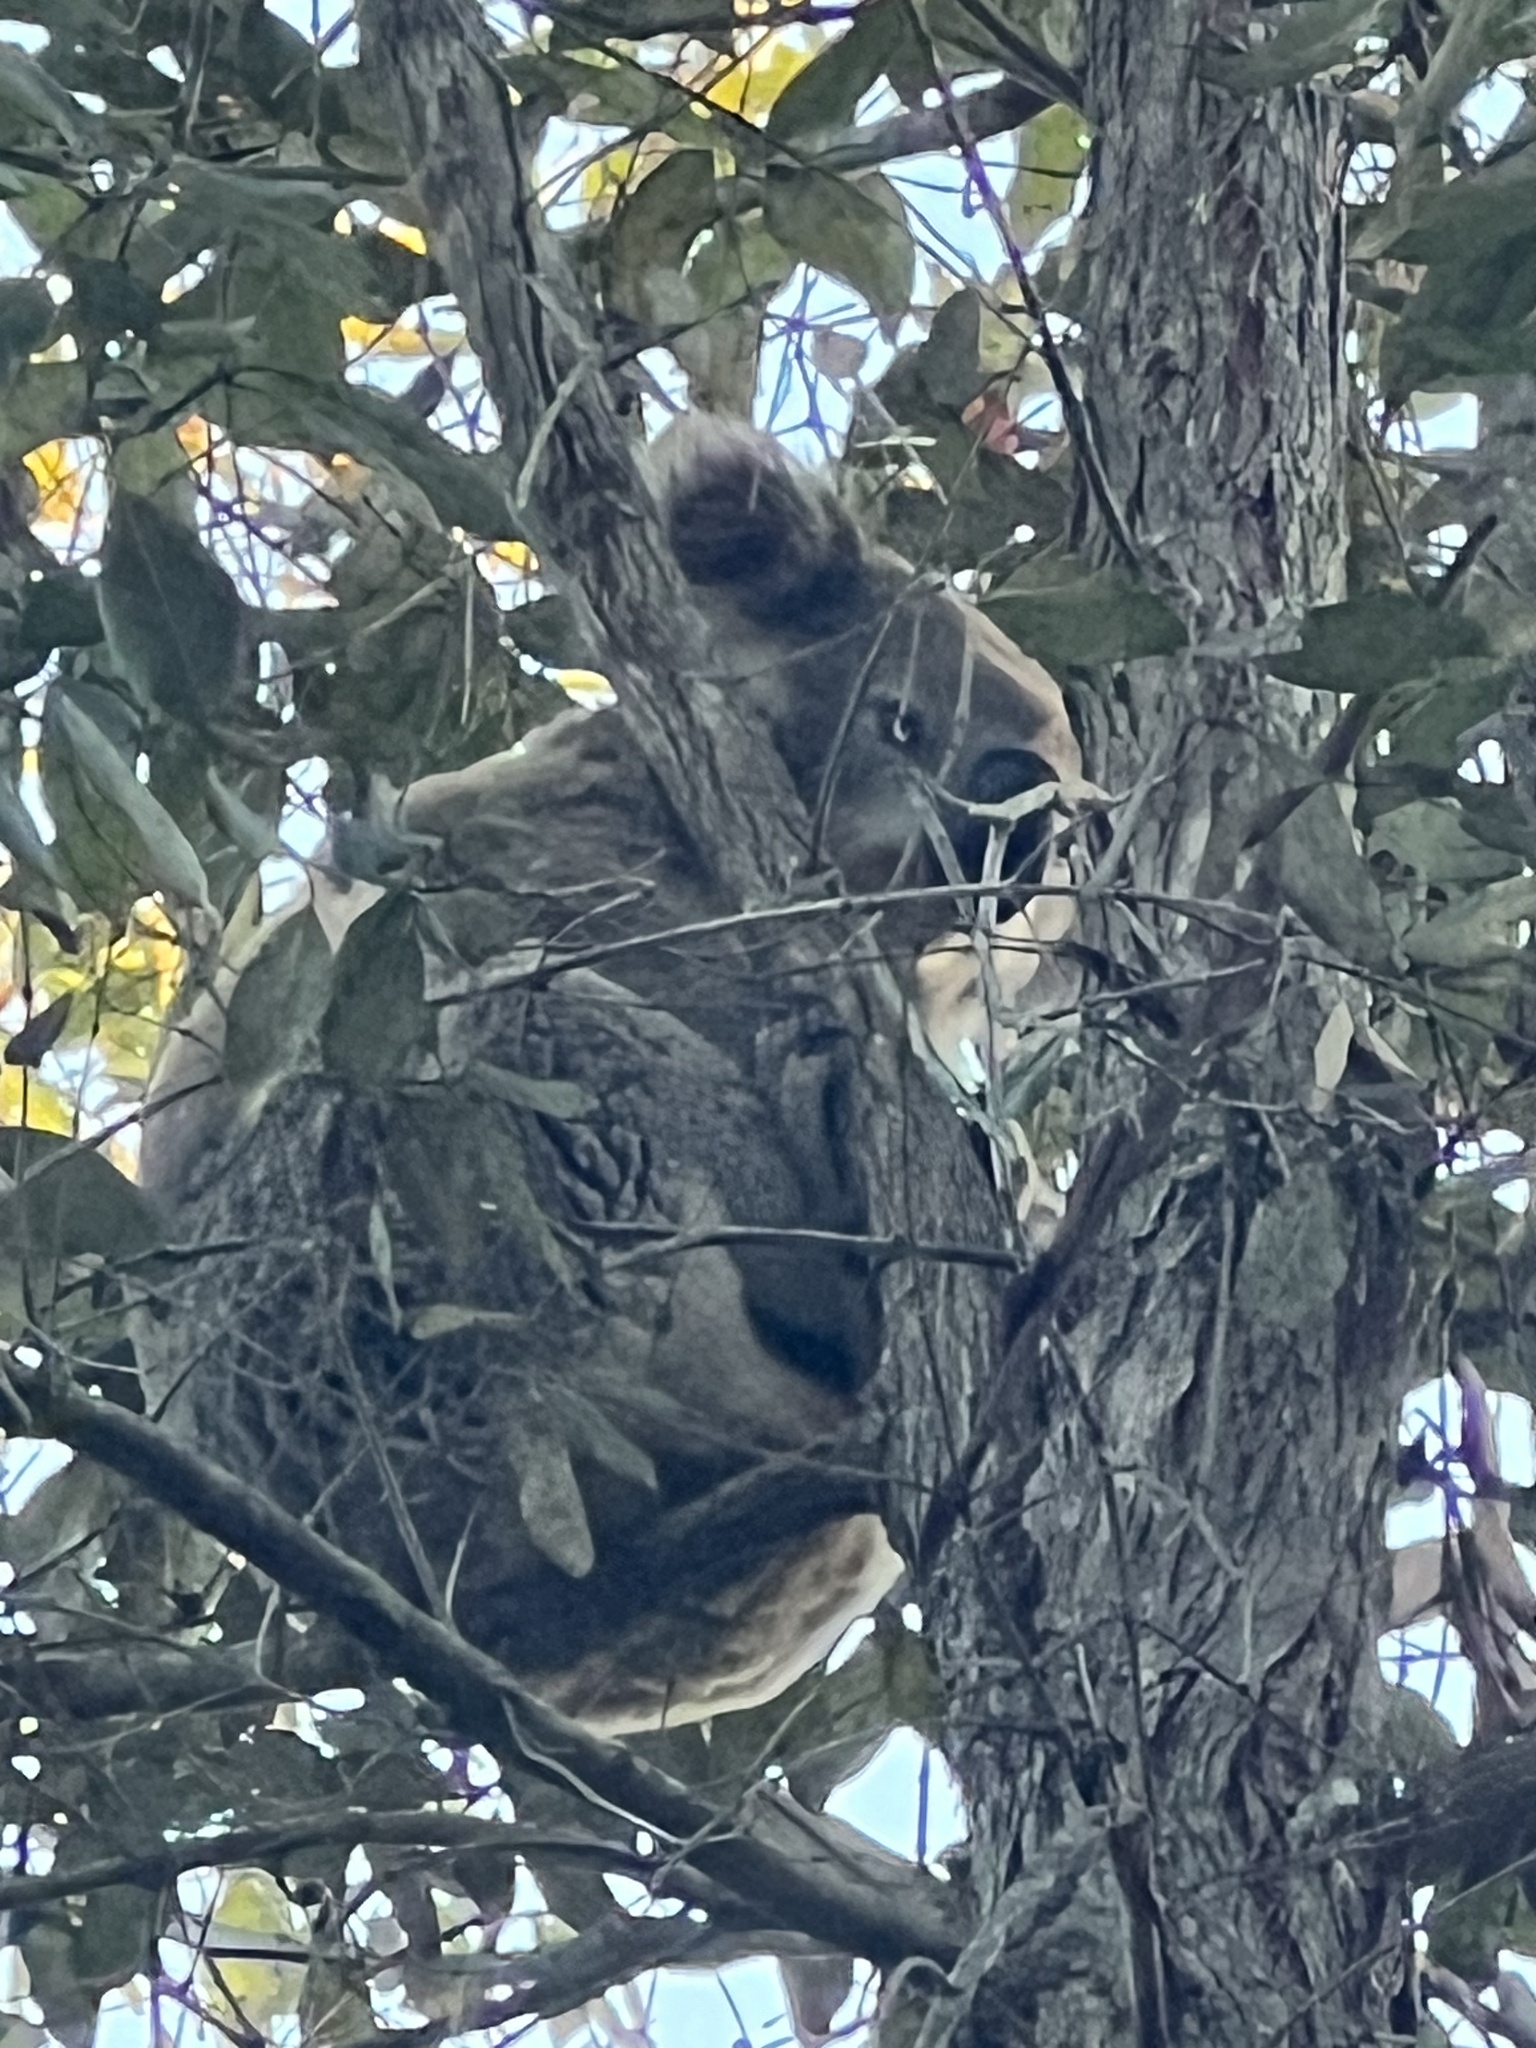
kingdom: Animalia
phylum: Chordata
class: Mammalia
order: Diprotodontia
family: Phascolarctidae
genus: Phascolarctos
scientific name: Phascolarctos cinereus
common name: Koala
